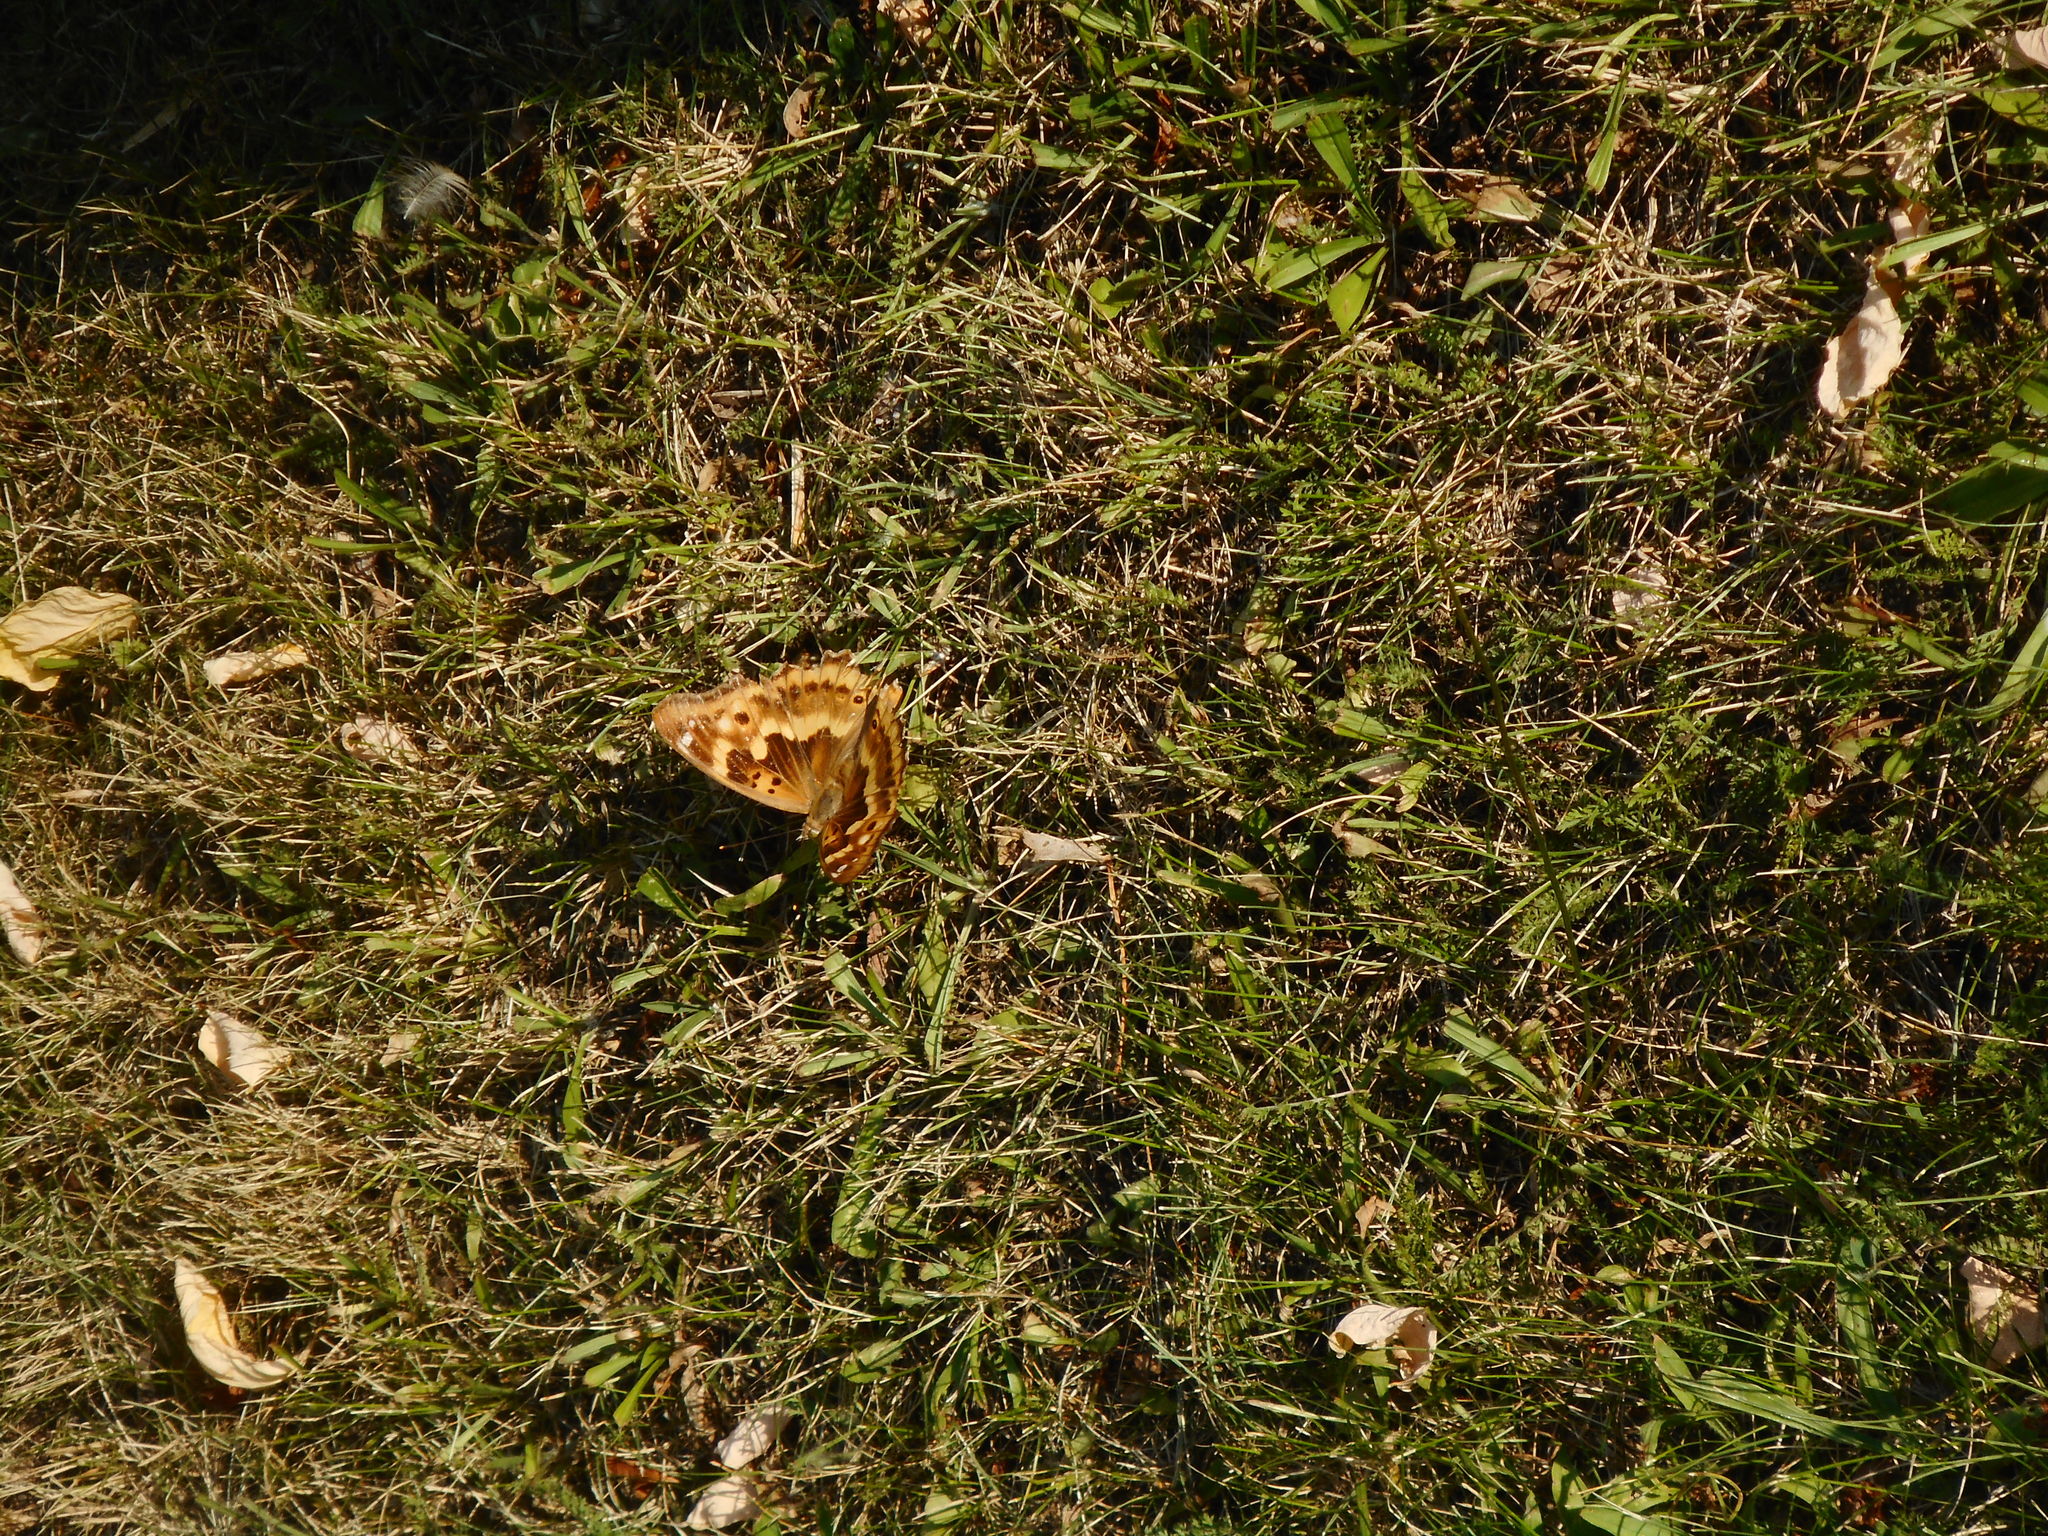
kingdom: Animalia
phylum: Arthropoda
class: Insecta
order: Lepidoptera
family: Nymphalidae
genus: Apatura
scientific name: Apatura ilia
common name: Lesser purple emperor
